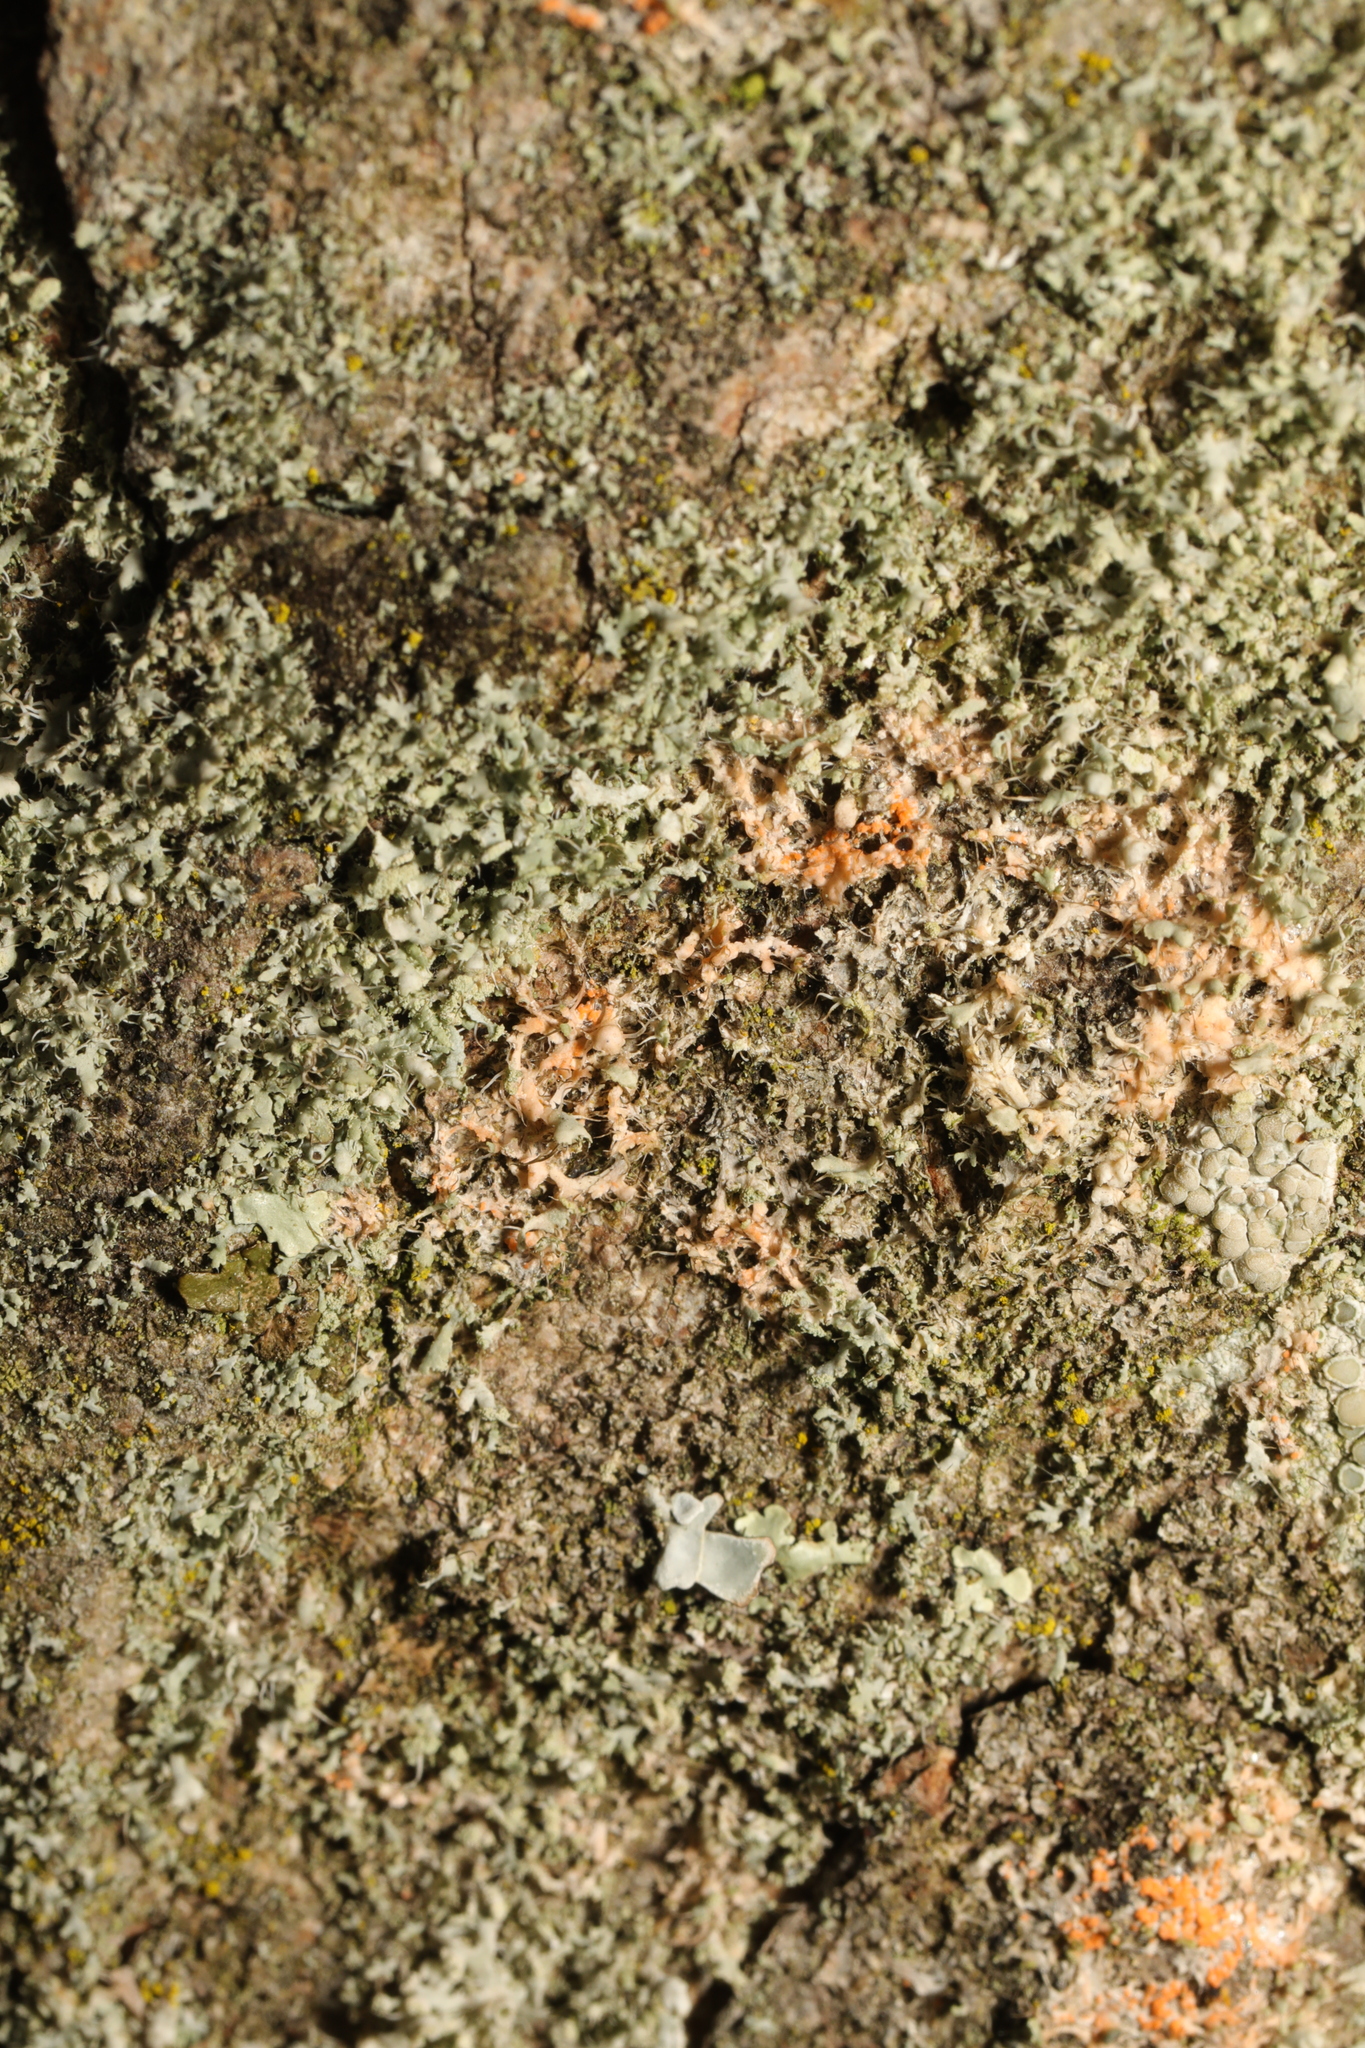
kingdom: Fungi
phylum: Basidiomycota
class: Agaricomycetes
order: Corticiales
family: Corticiaceae
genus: Erythricium
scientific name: Erythricium aurantiacum
